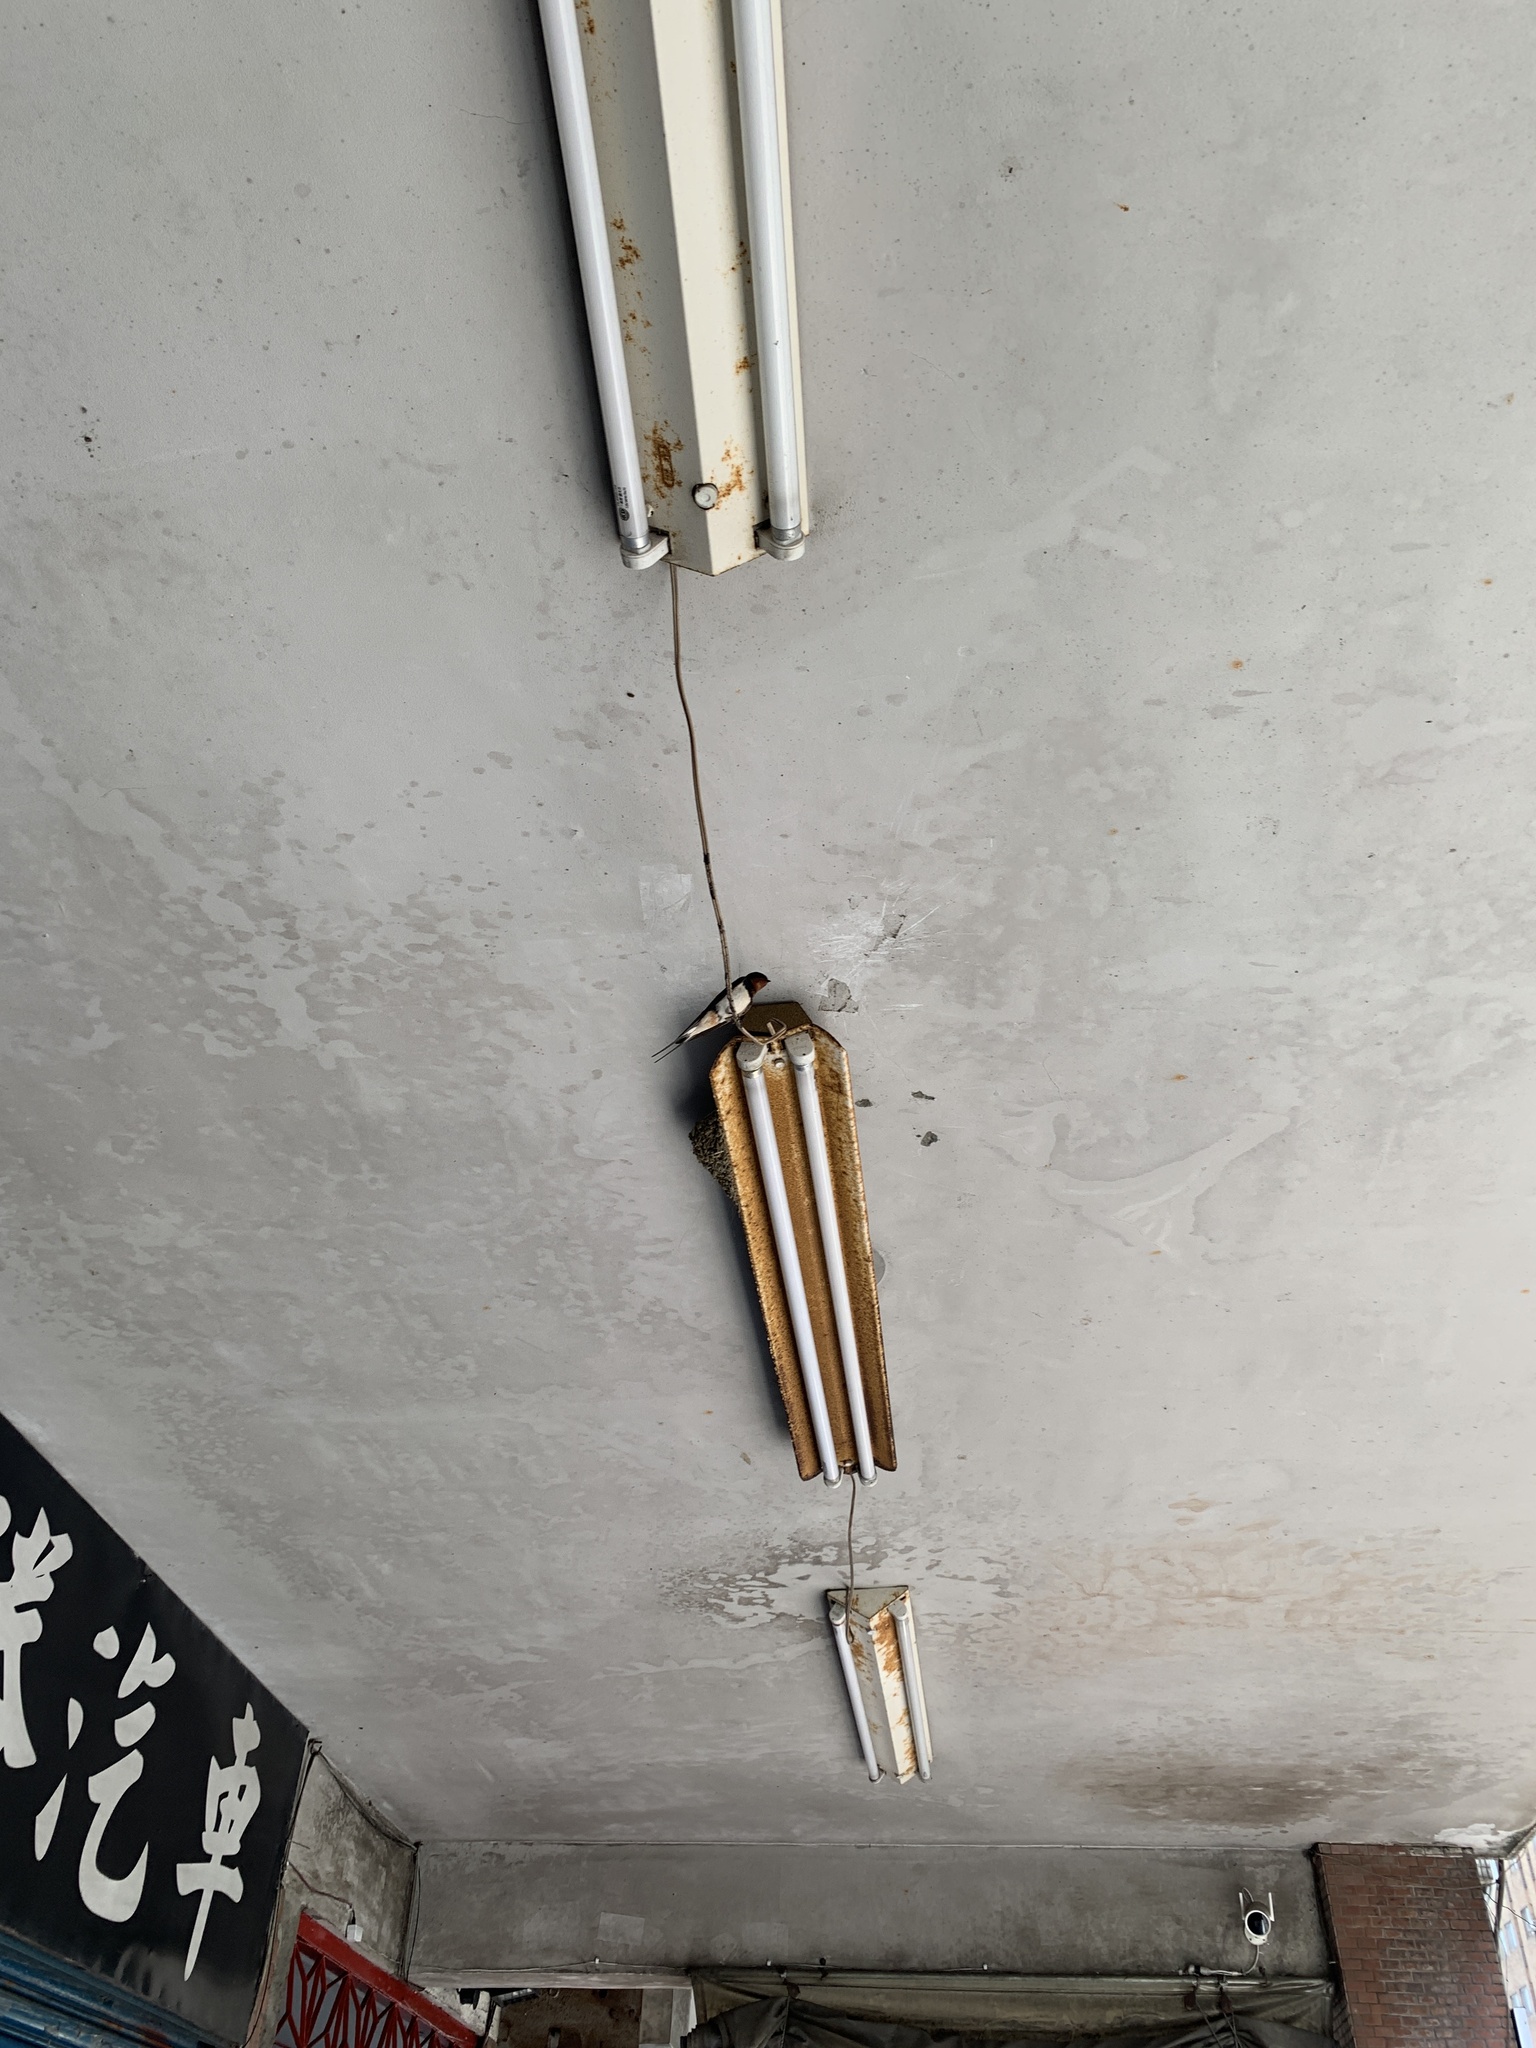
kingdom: Animalia
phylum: Chordata
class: Aves
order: Passeriformes
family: Hirundinidae
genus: Hirundo
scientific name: Hirundo rustica
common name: Barn swallow
